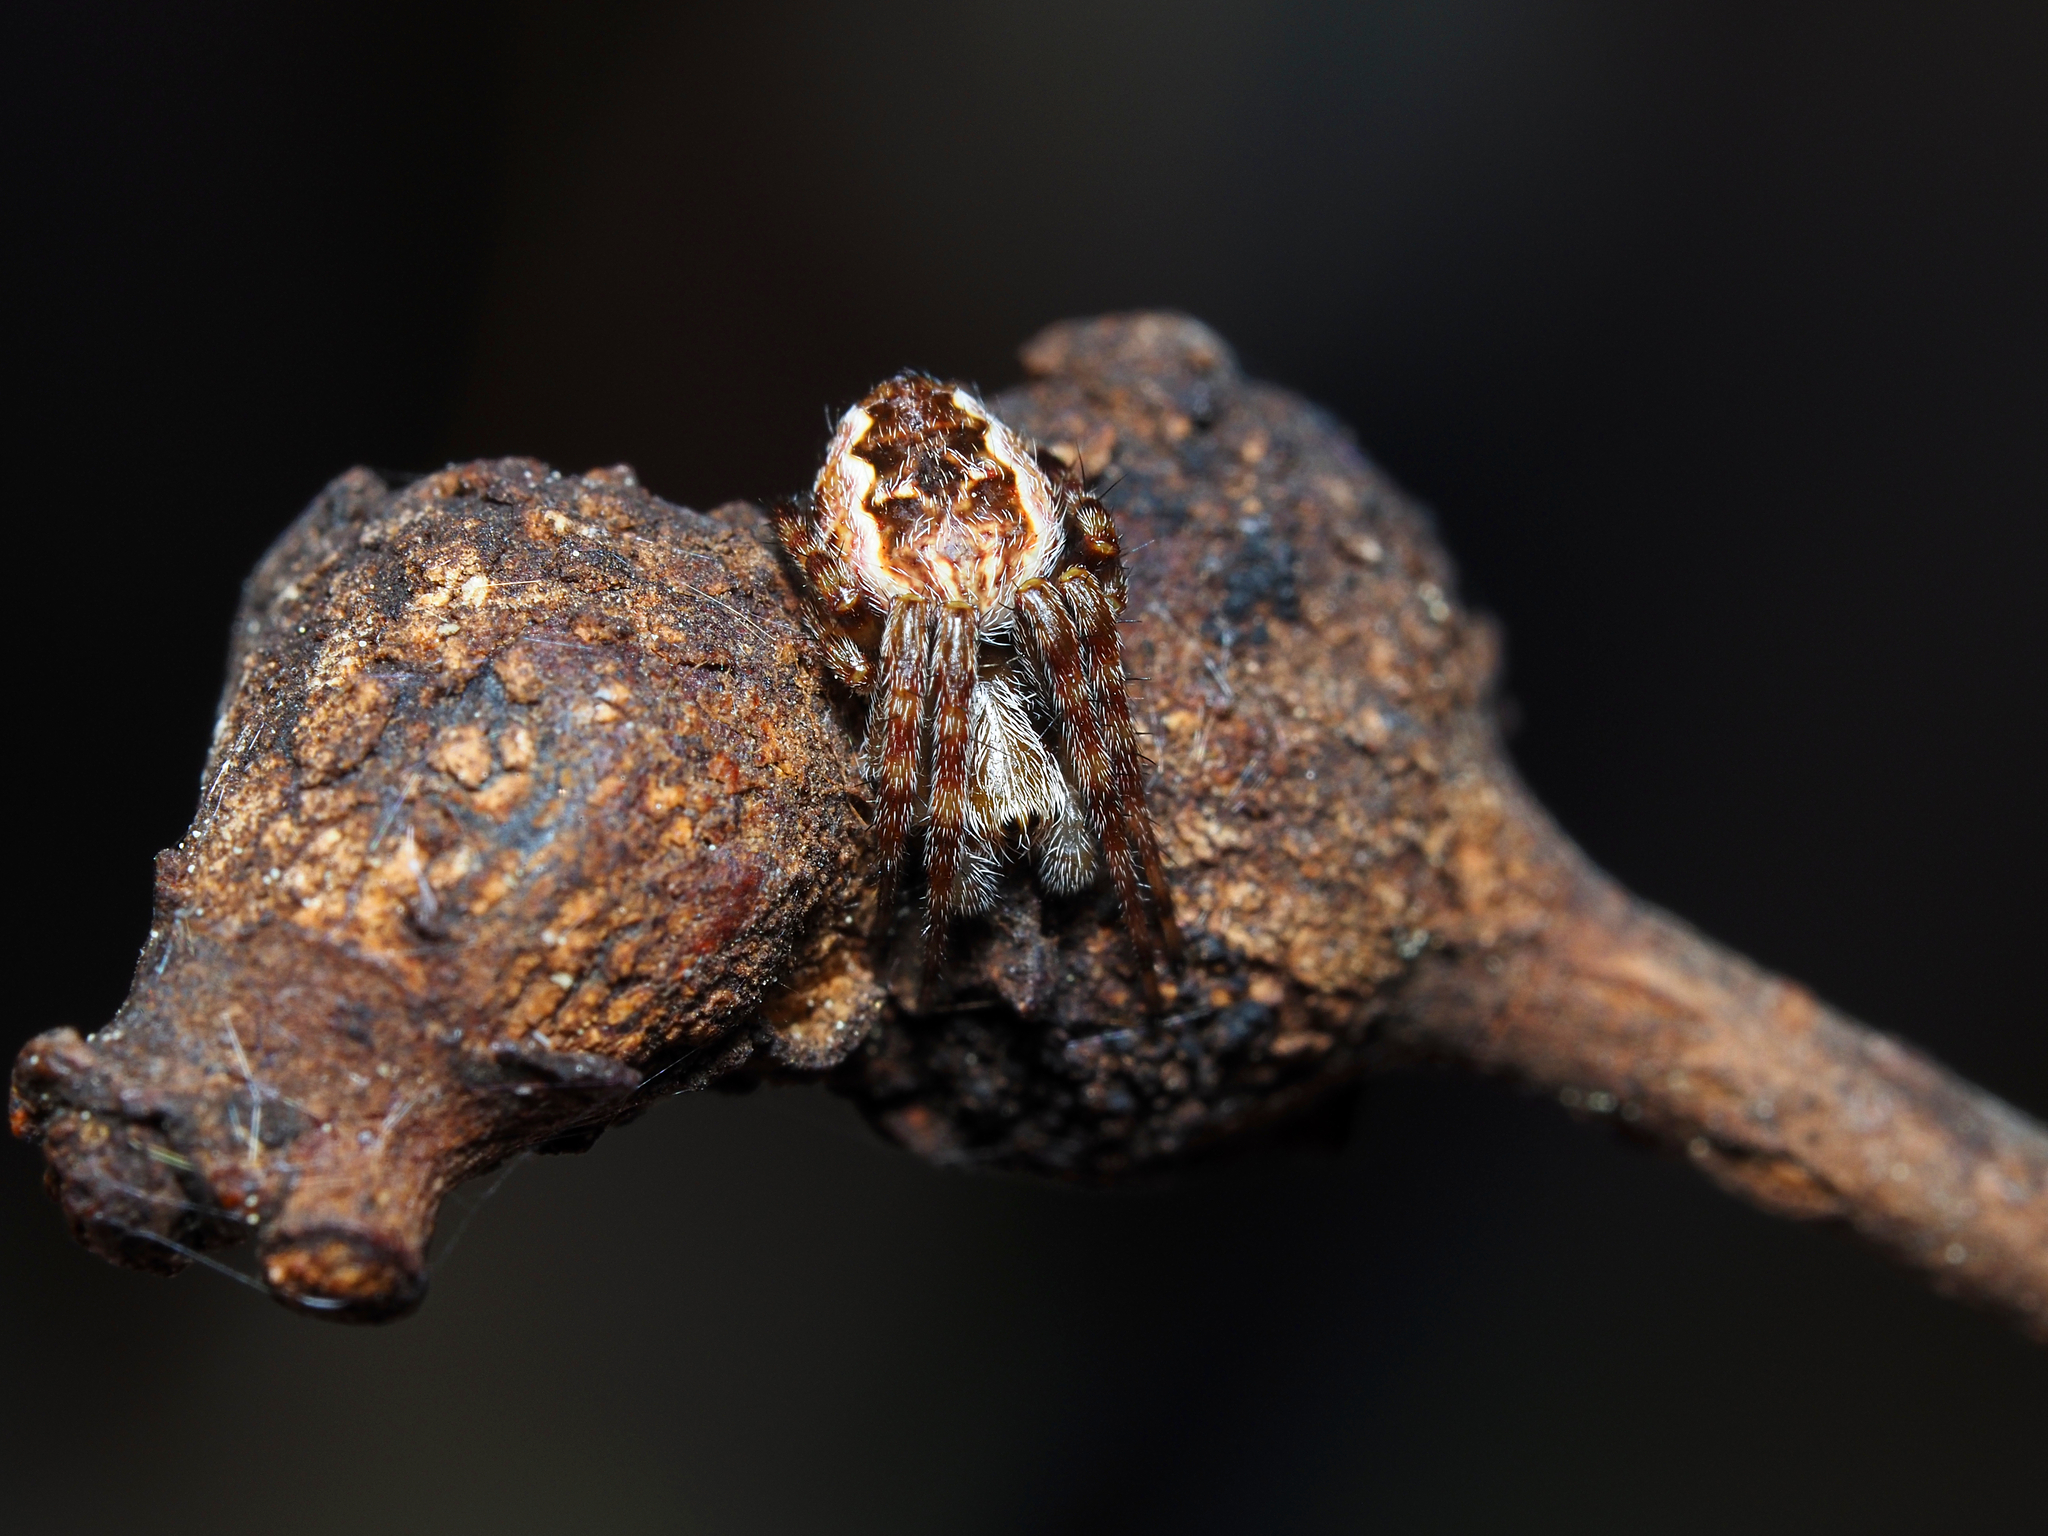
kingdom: Animalia
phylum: Arthropoda
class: Arachnida
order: Araneae
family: Araneidae
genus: Salsa
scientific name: Salsa fuliginata
